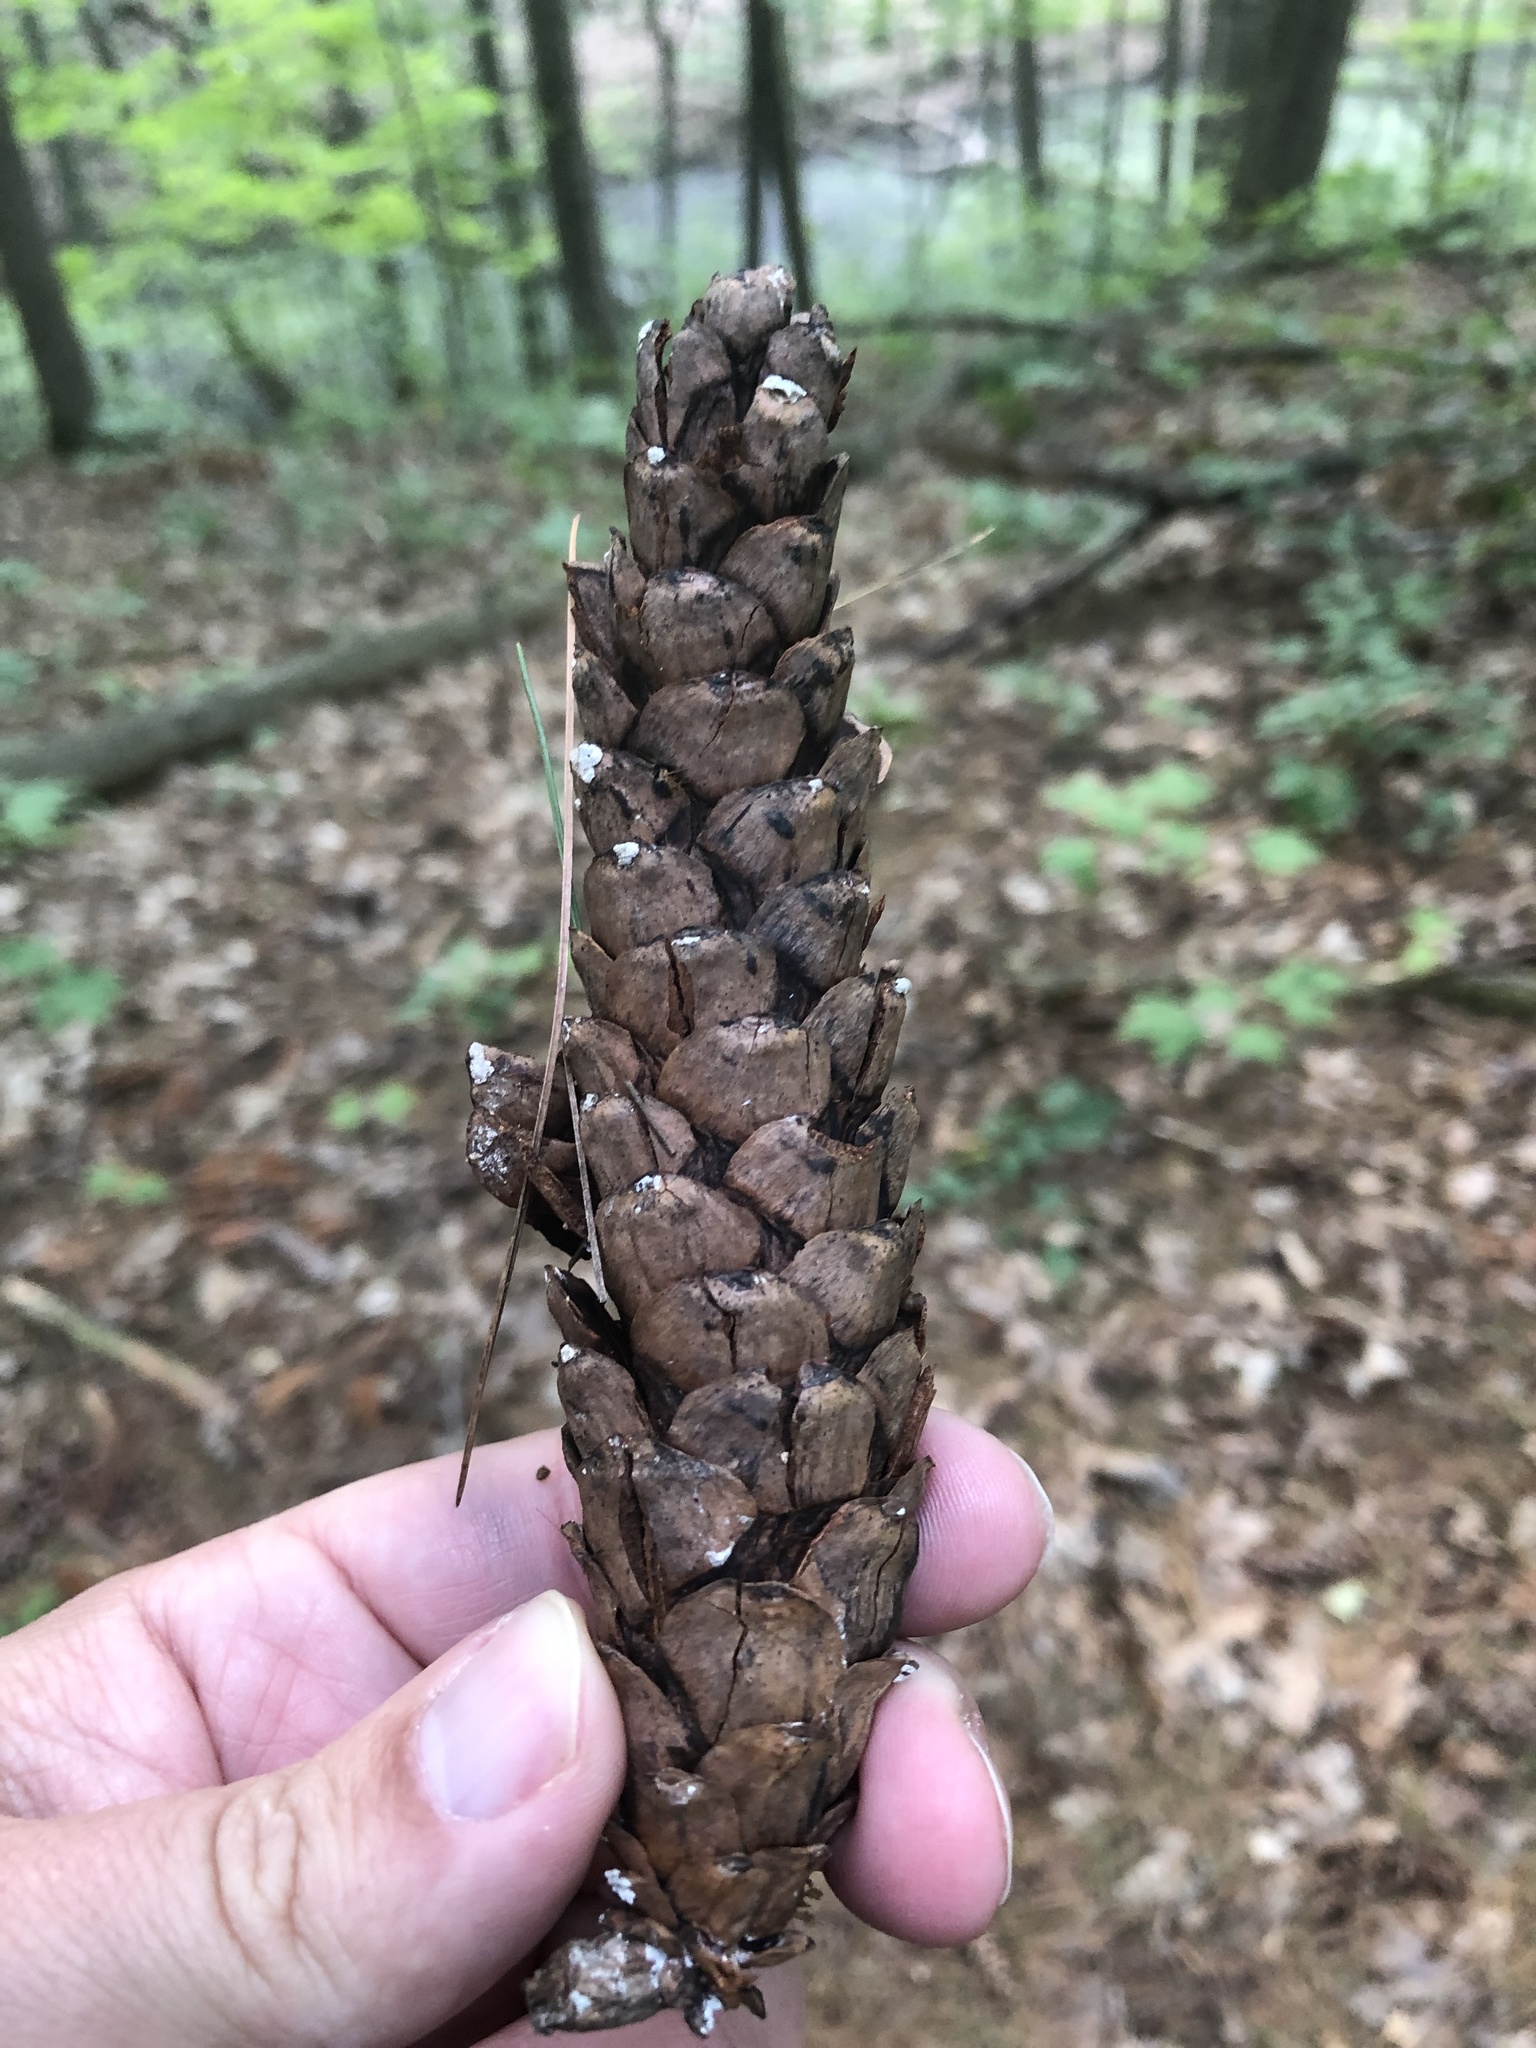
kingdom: Plantae
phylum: Tracheophyta
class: Pinopsida
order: Pinales
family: Pinaceae
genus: Pinus
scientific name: Pinus strobus
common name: Weymouth pine
